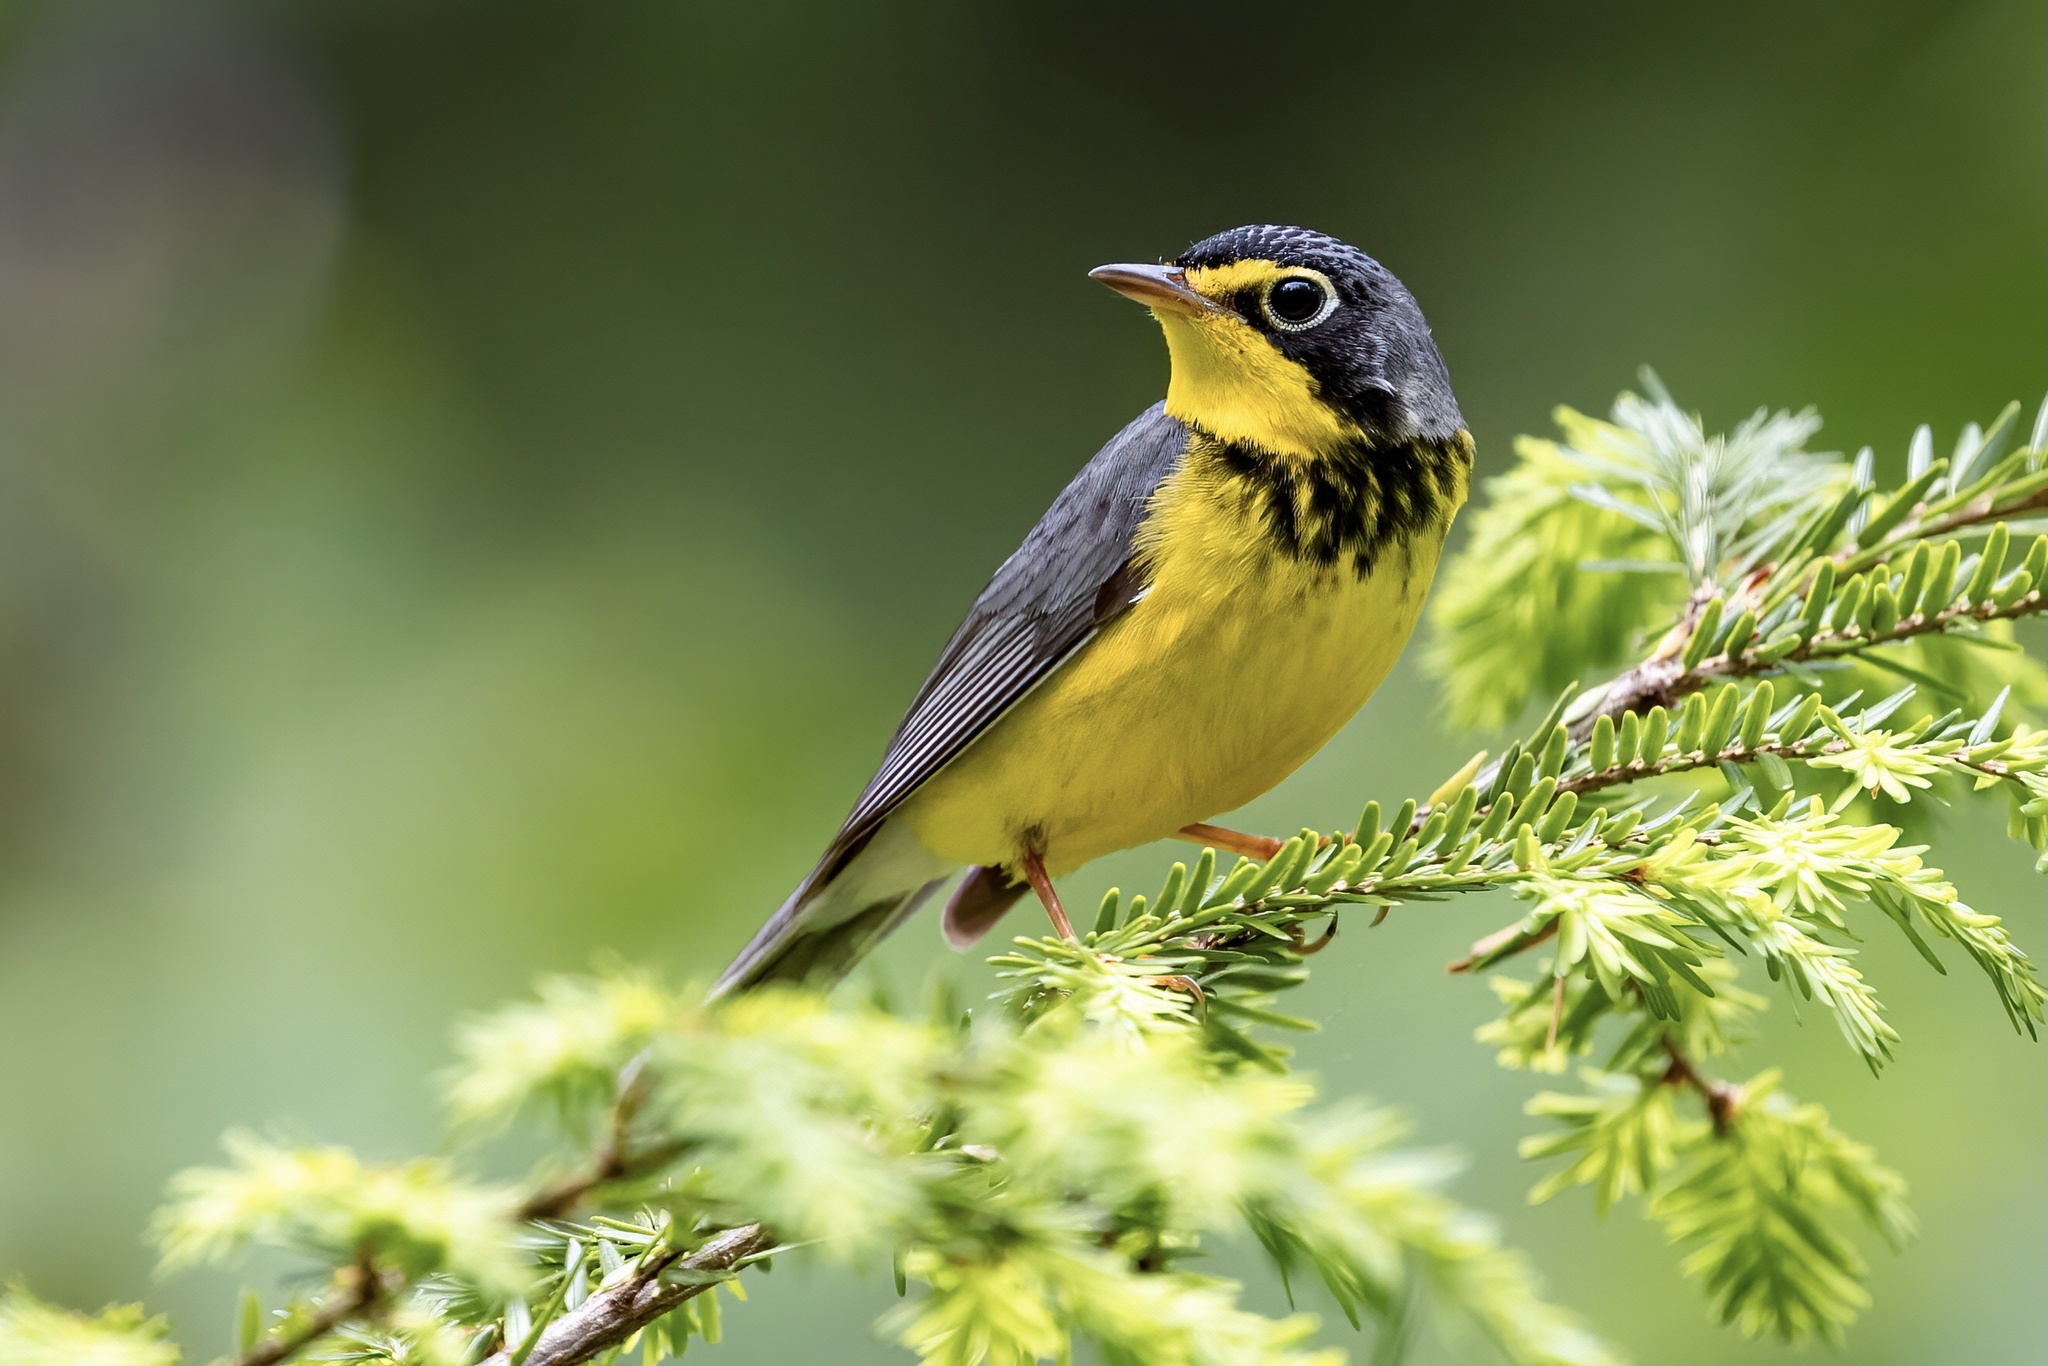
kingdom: Animalia
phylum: Chordata
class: Aves
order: Passeriformes
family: Parulidae
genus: Cardellina
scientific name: Cardellina canadensis
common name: Canada warbler
